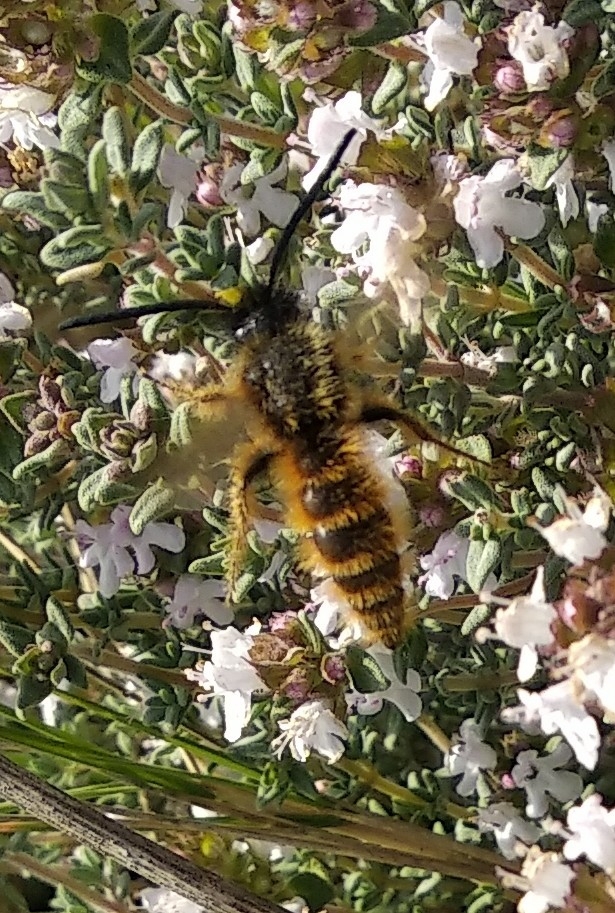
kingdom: Animalia
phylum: Arthropoda
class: Insecta
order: Hymenoptera
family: Scoliidae
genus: Dasyscolia
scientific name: Dasyscolia ciliata
